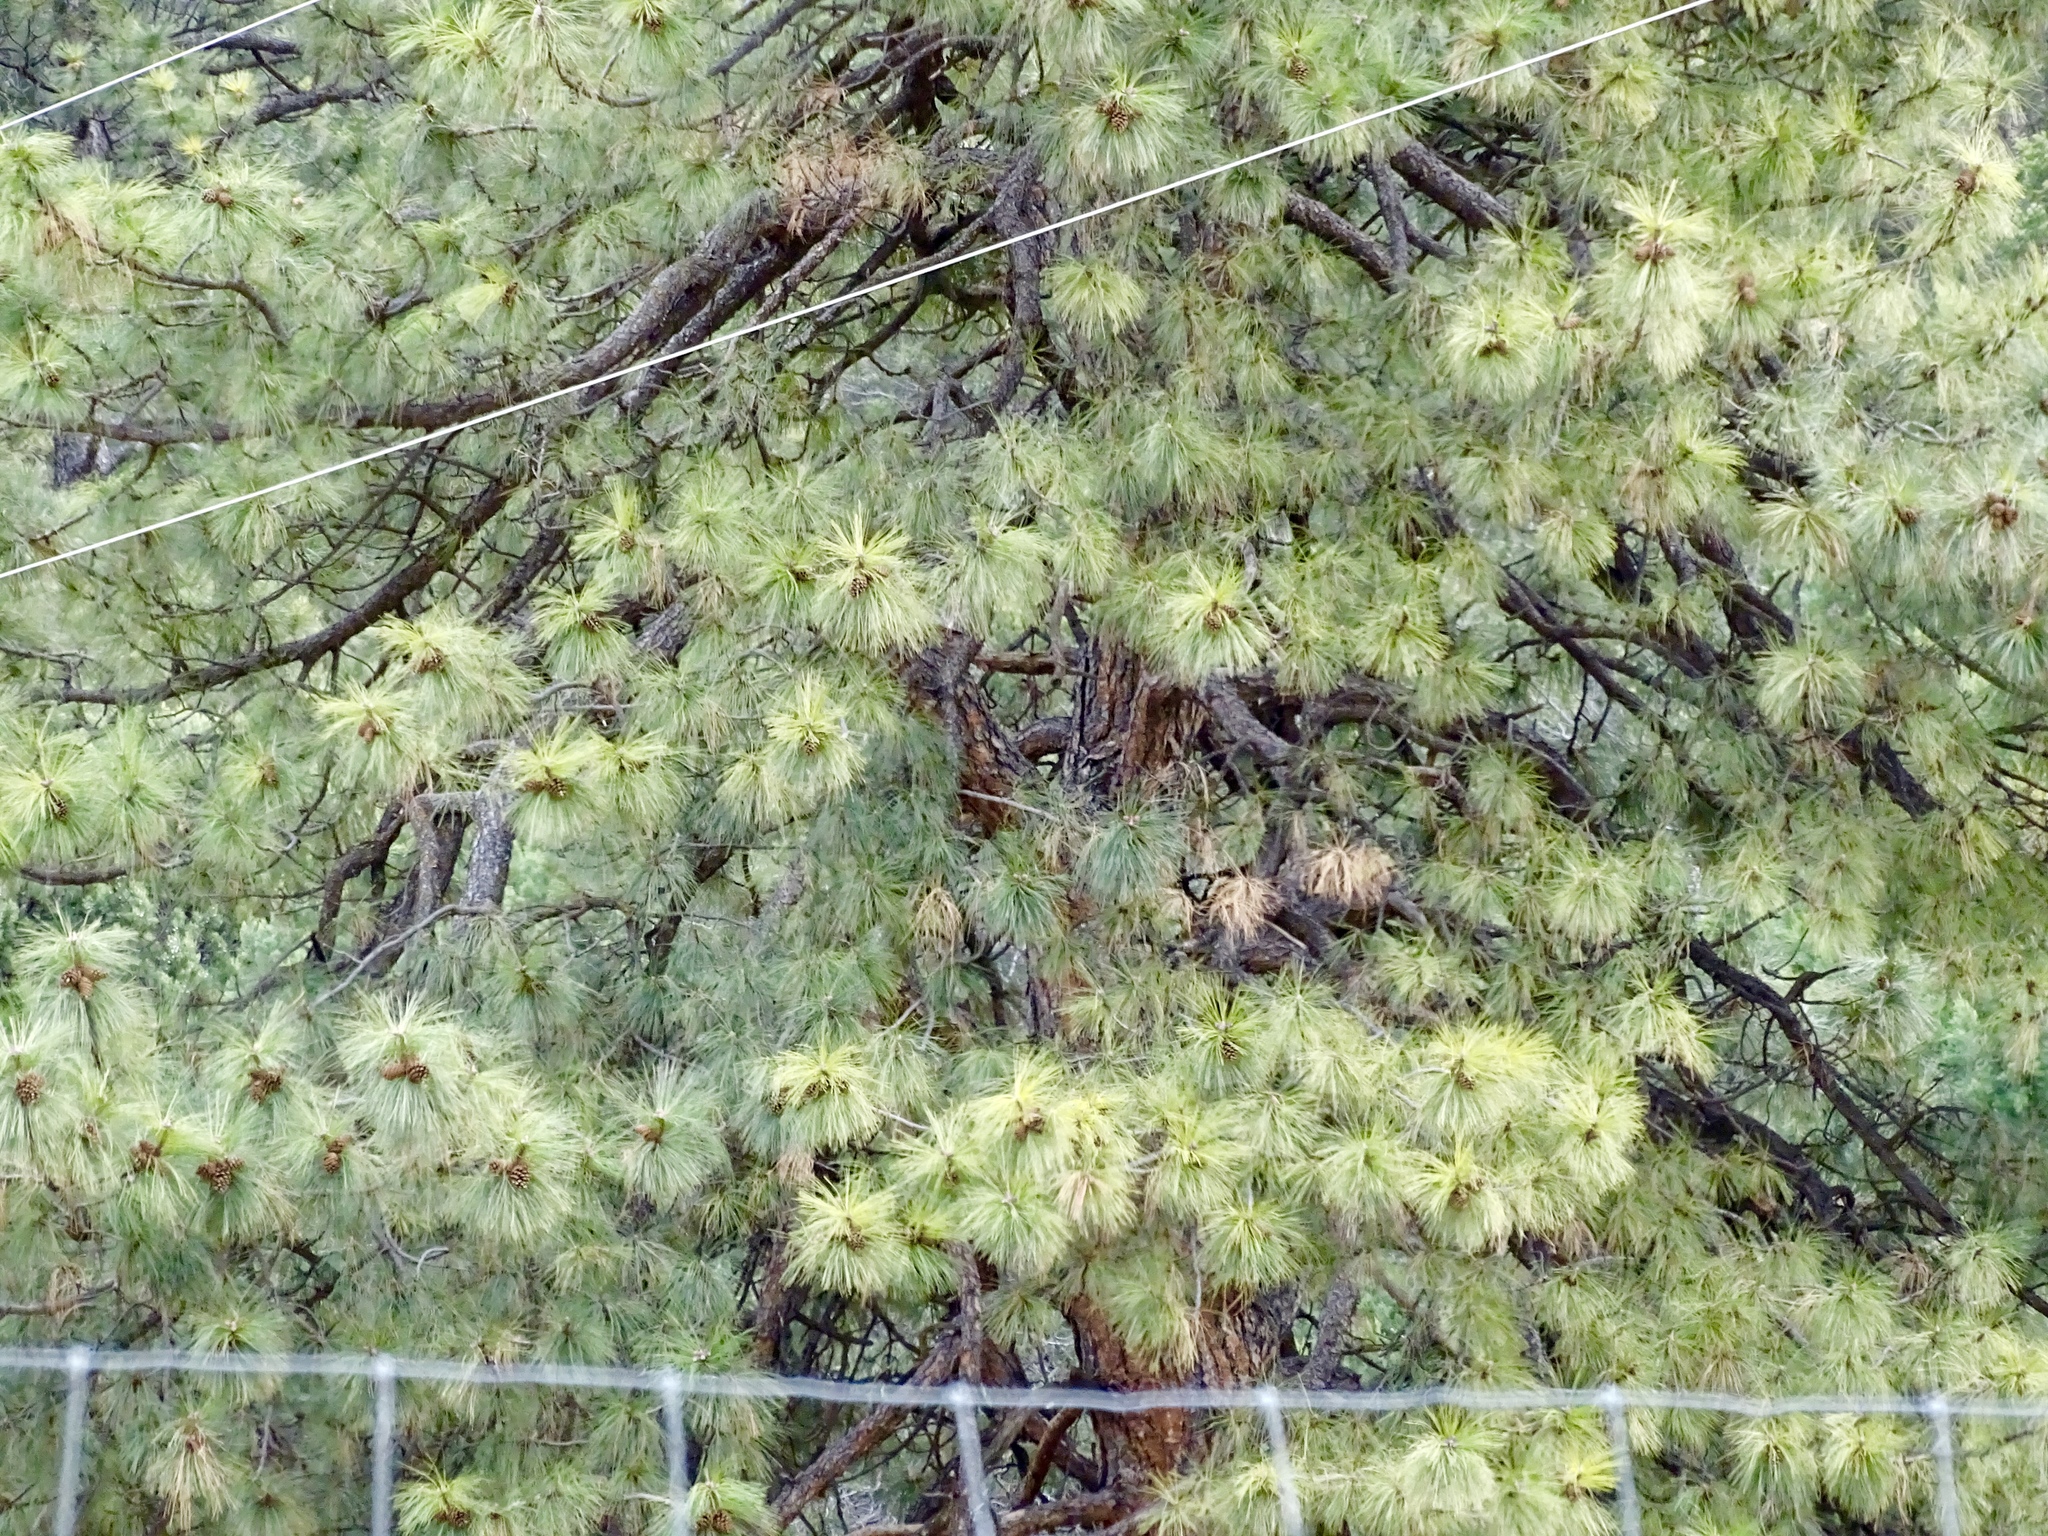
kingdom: Plantae
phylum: Tracheophyta
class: Pinopsida
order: Pinales
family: Pinaceae
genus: Pinus
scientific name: Pinus ponderosa
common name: Western yellow-pine
